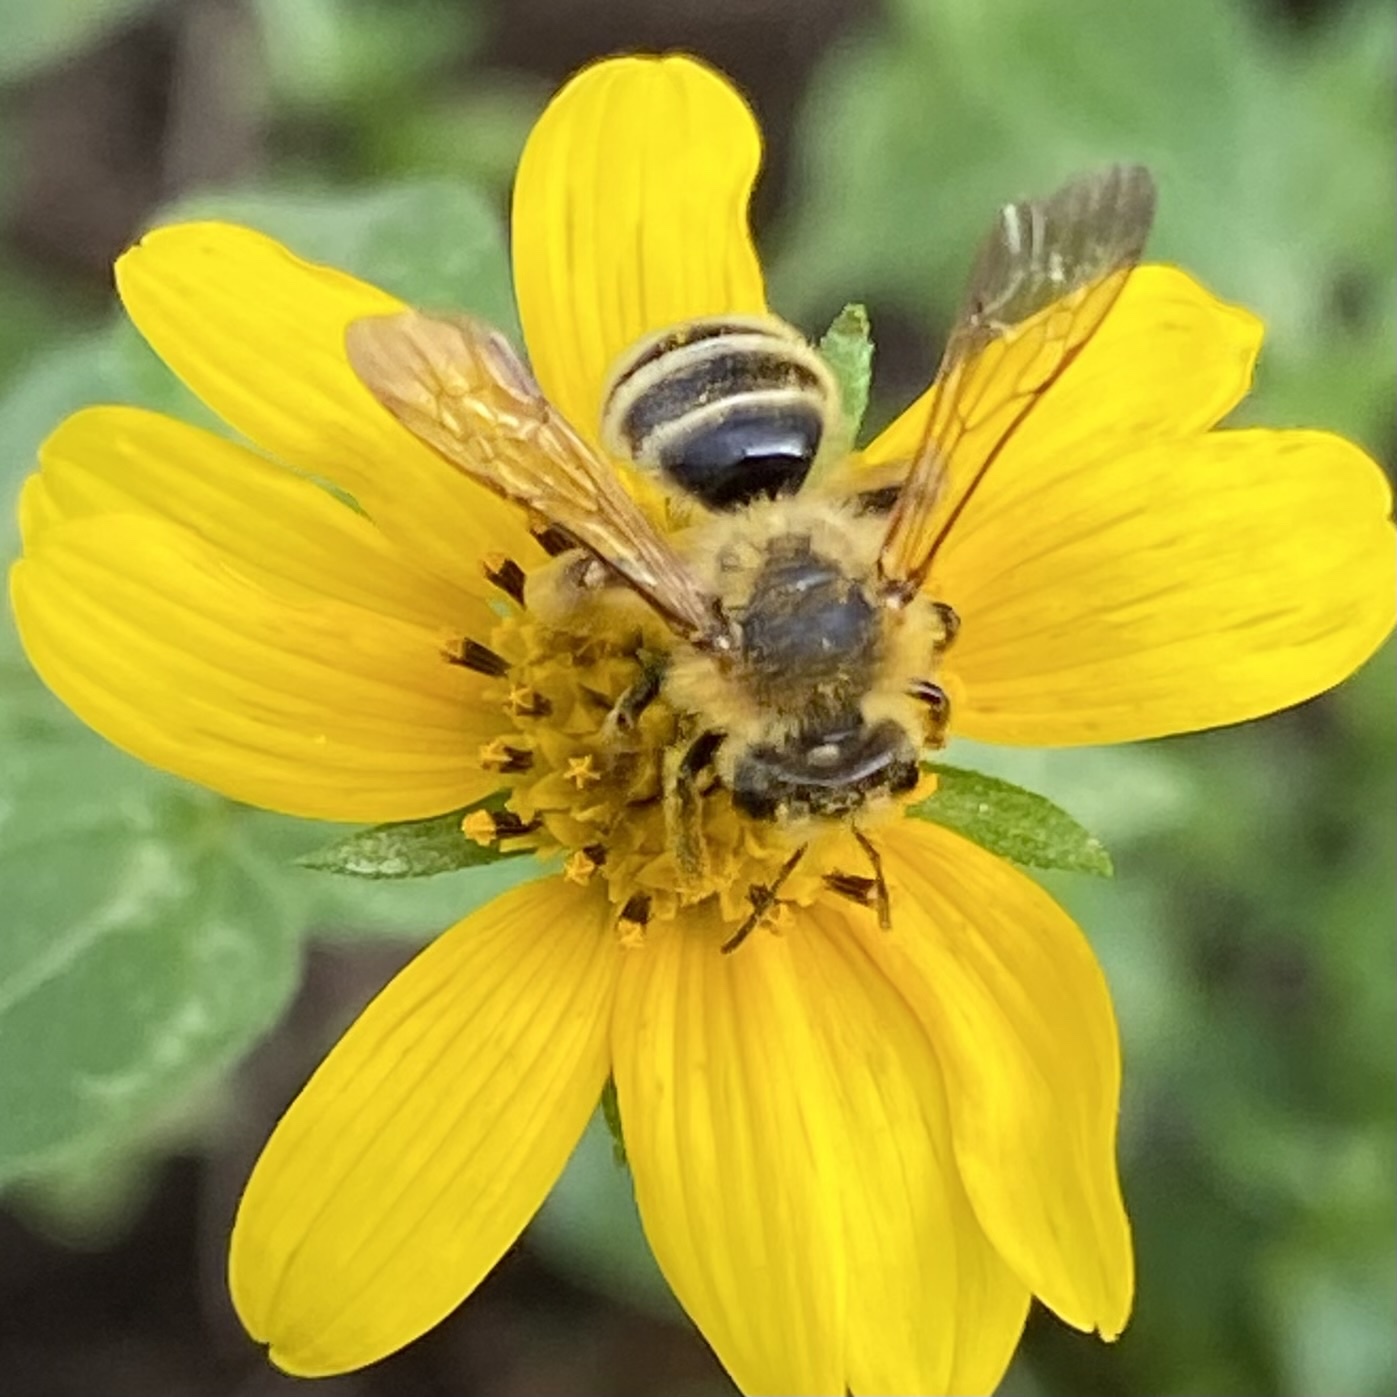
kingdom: Animalia
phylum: Arthropoda
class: Insecta
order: Hymenoptera
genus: Callandrena
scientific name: Callandrena
